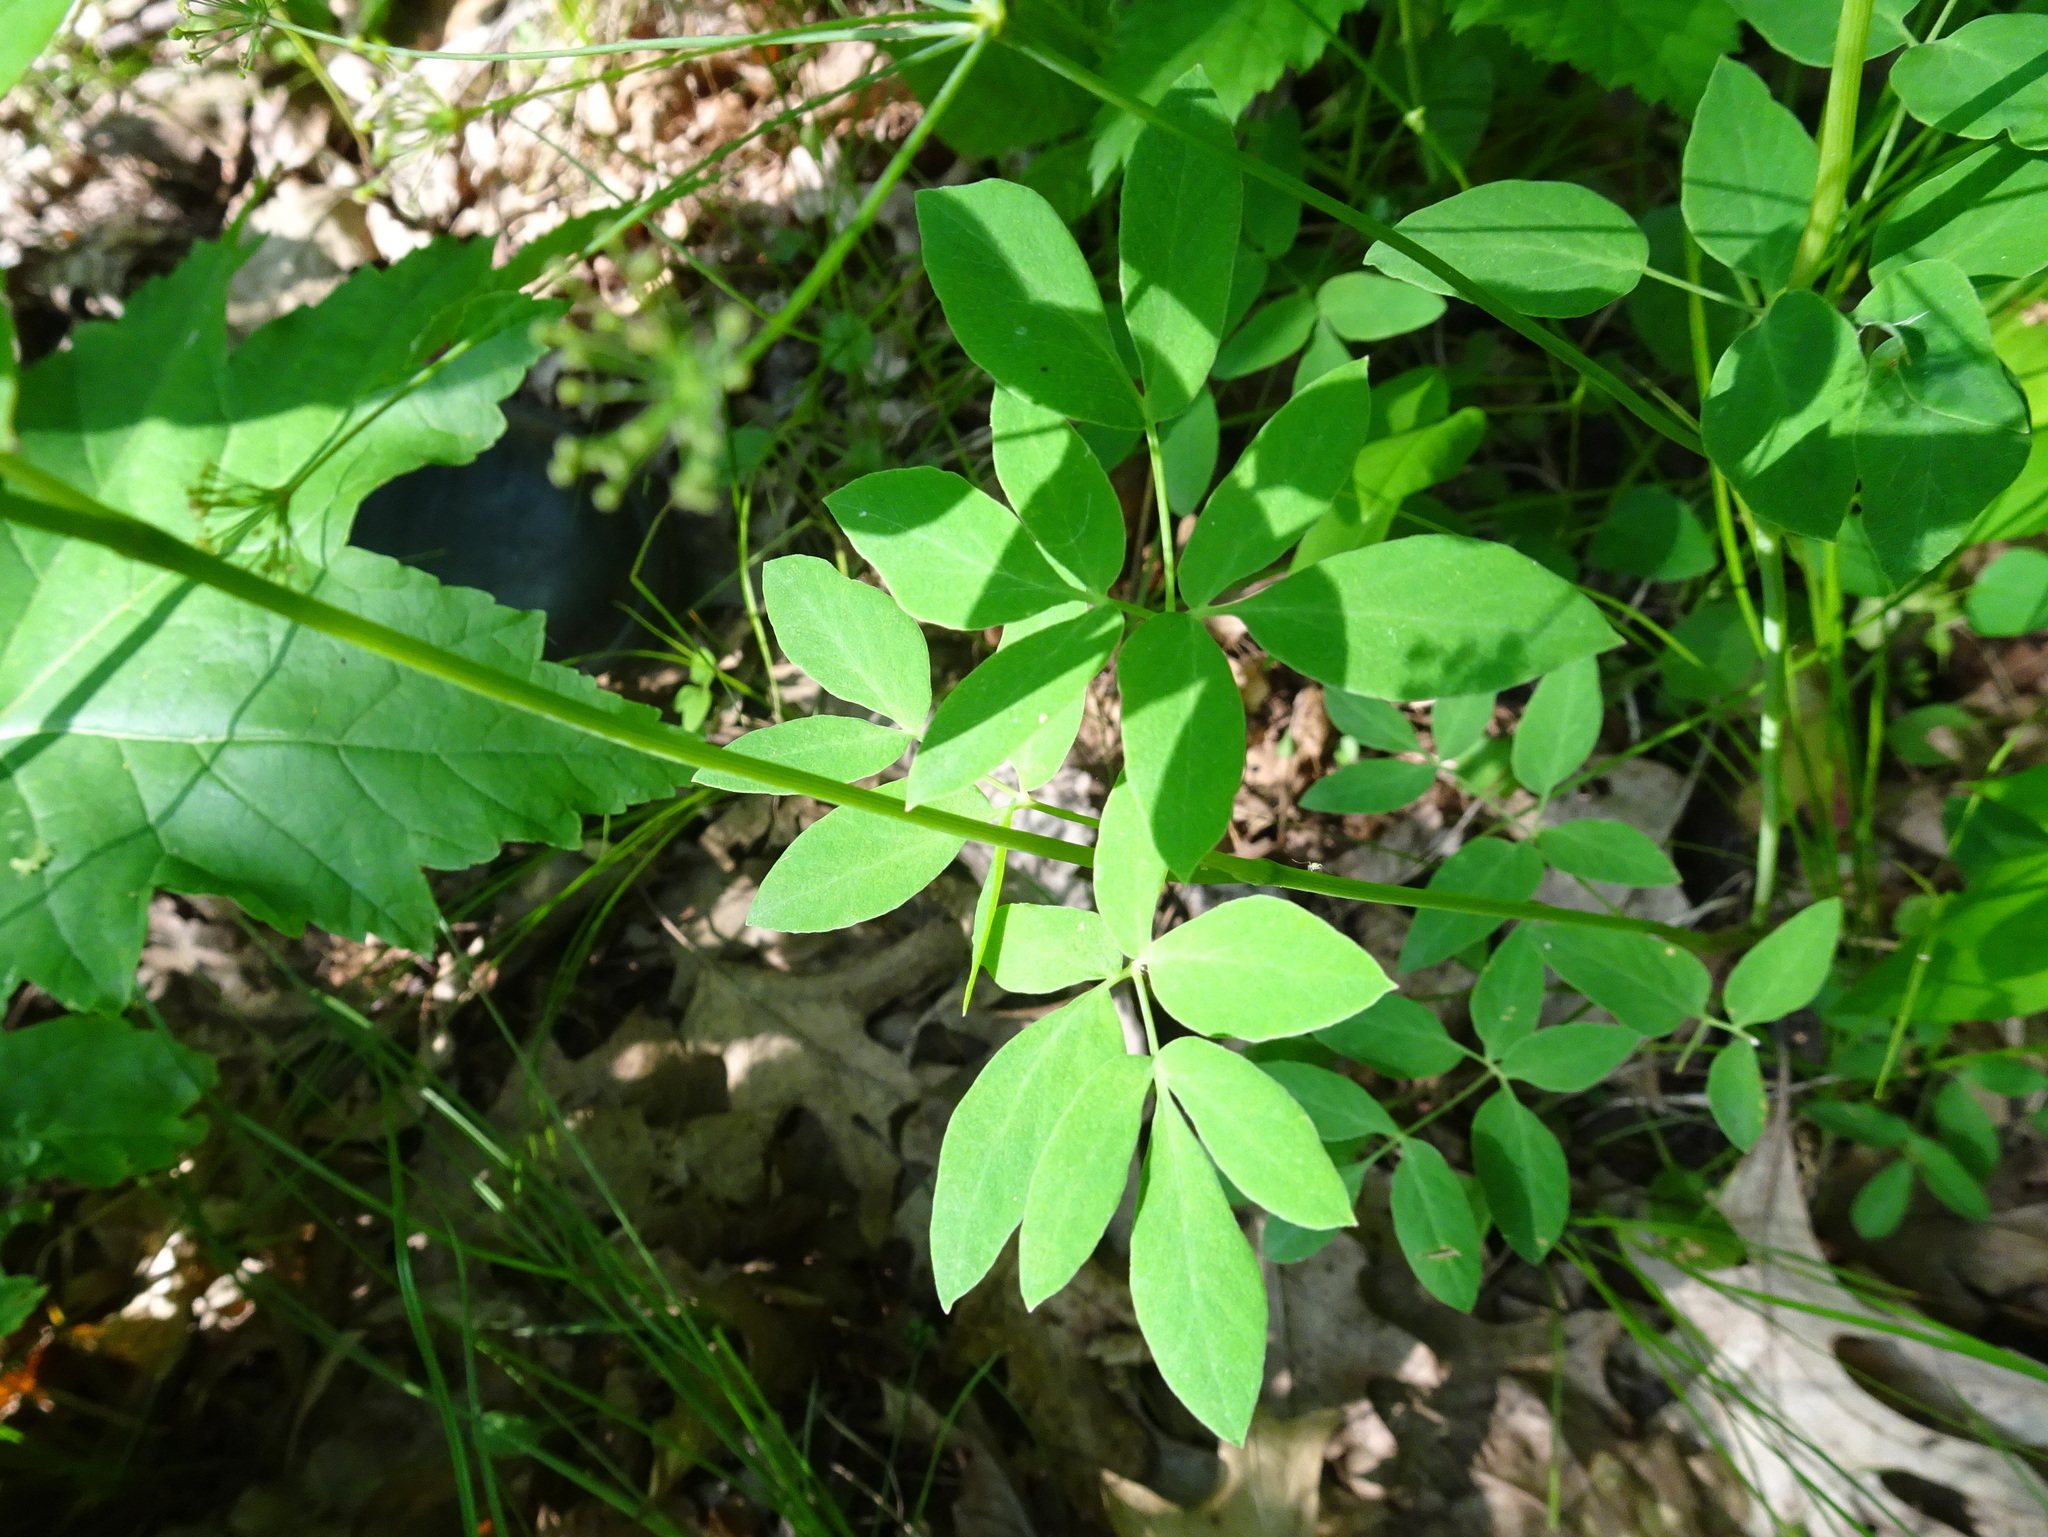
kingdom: Plantae
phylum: Tracheophyta
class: Magnoliopsida
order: Apiales
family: Apiaceae
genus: Taenidia
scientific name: Taenidia integerrima
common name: Golden alexander
